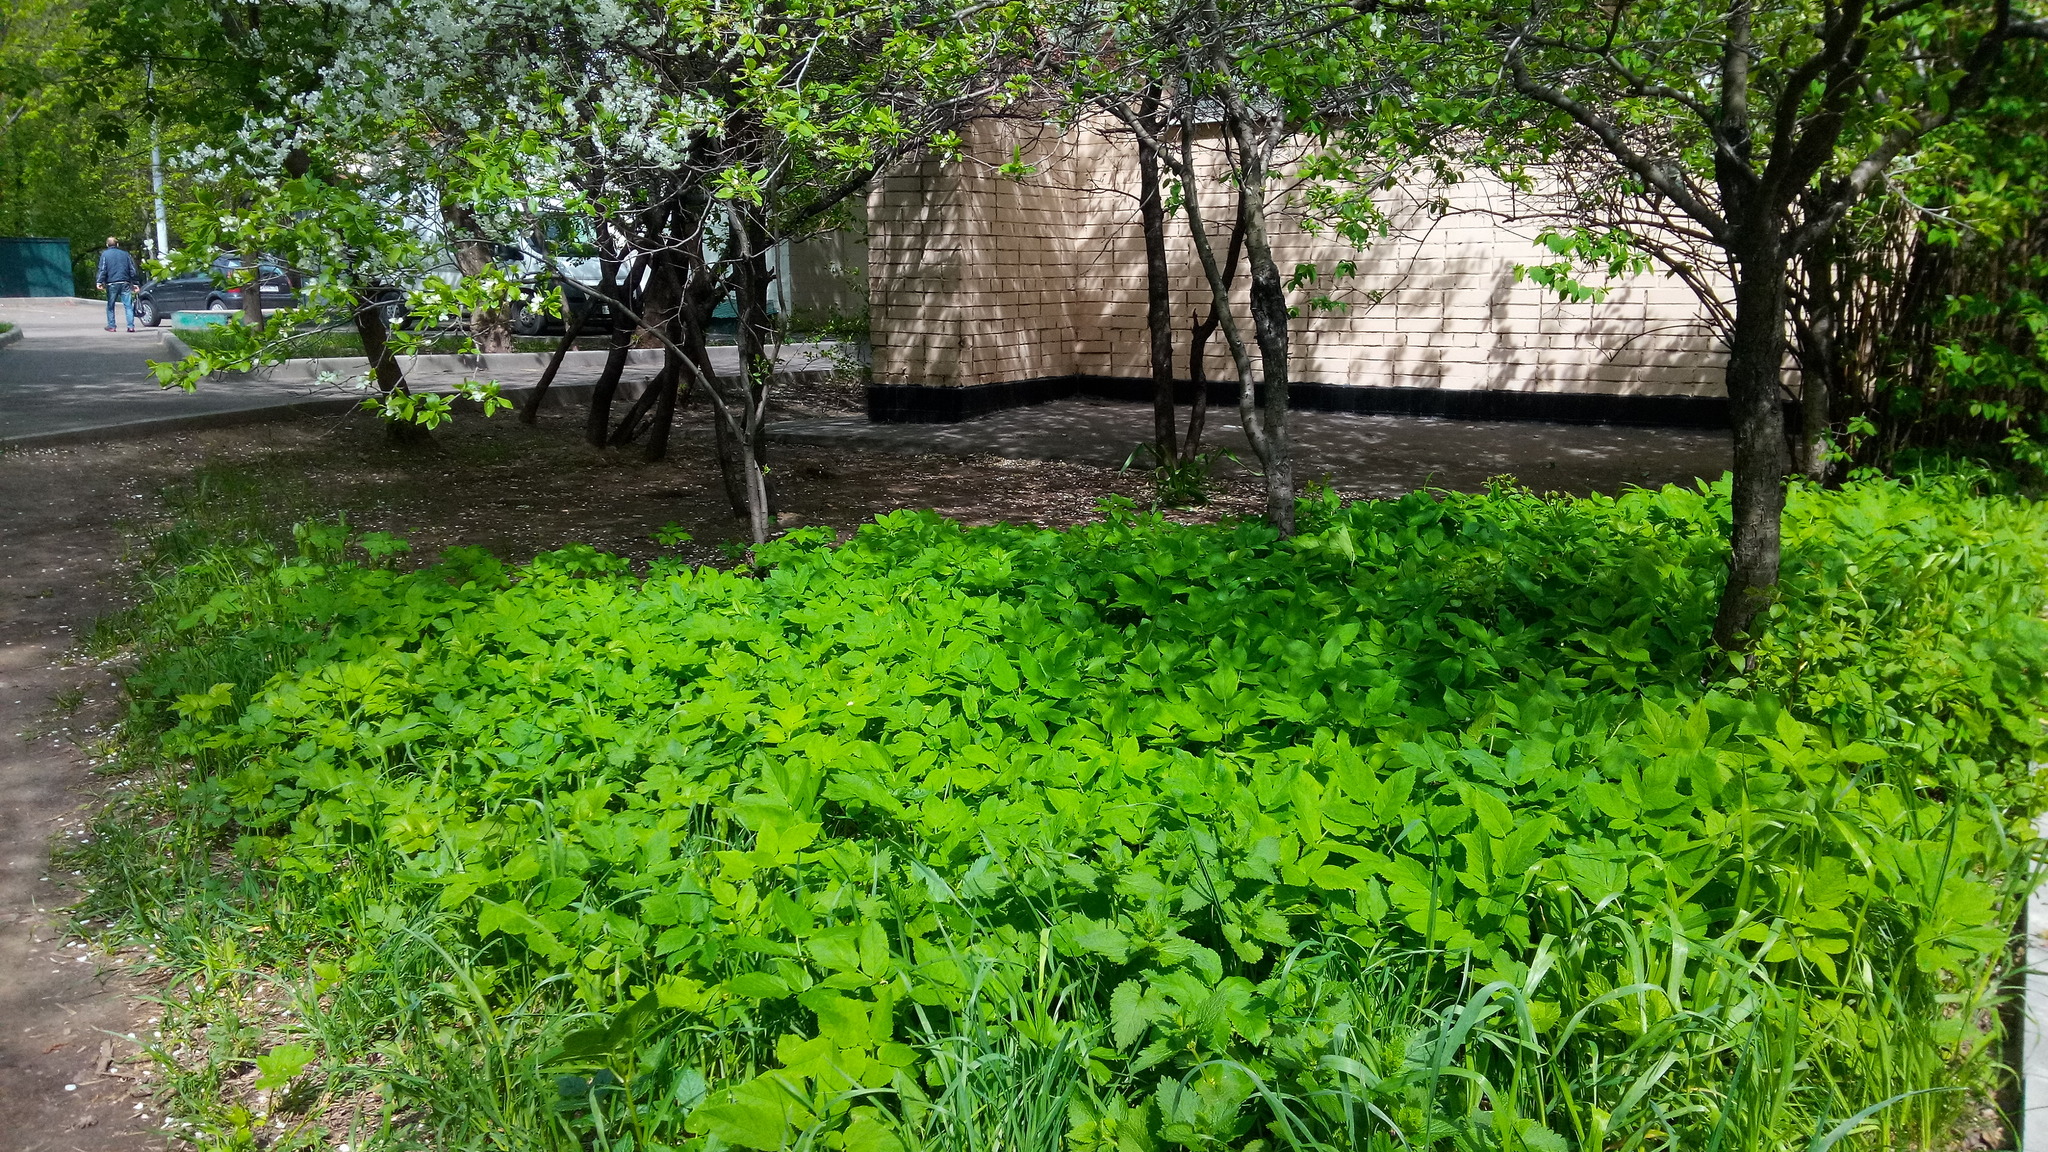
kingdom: Plantae
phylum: Tracheophyta
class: Magnoliopsida
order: Apiales
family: Apiaceae
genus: Aegopodium
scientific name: Aegopodium podagraria
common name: Ground-elder
